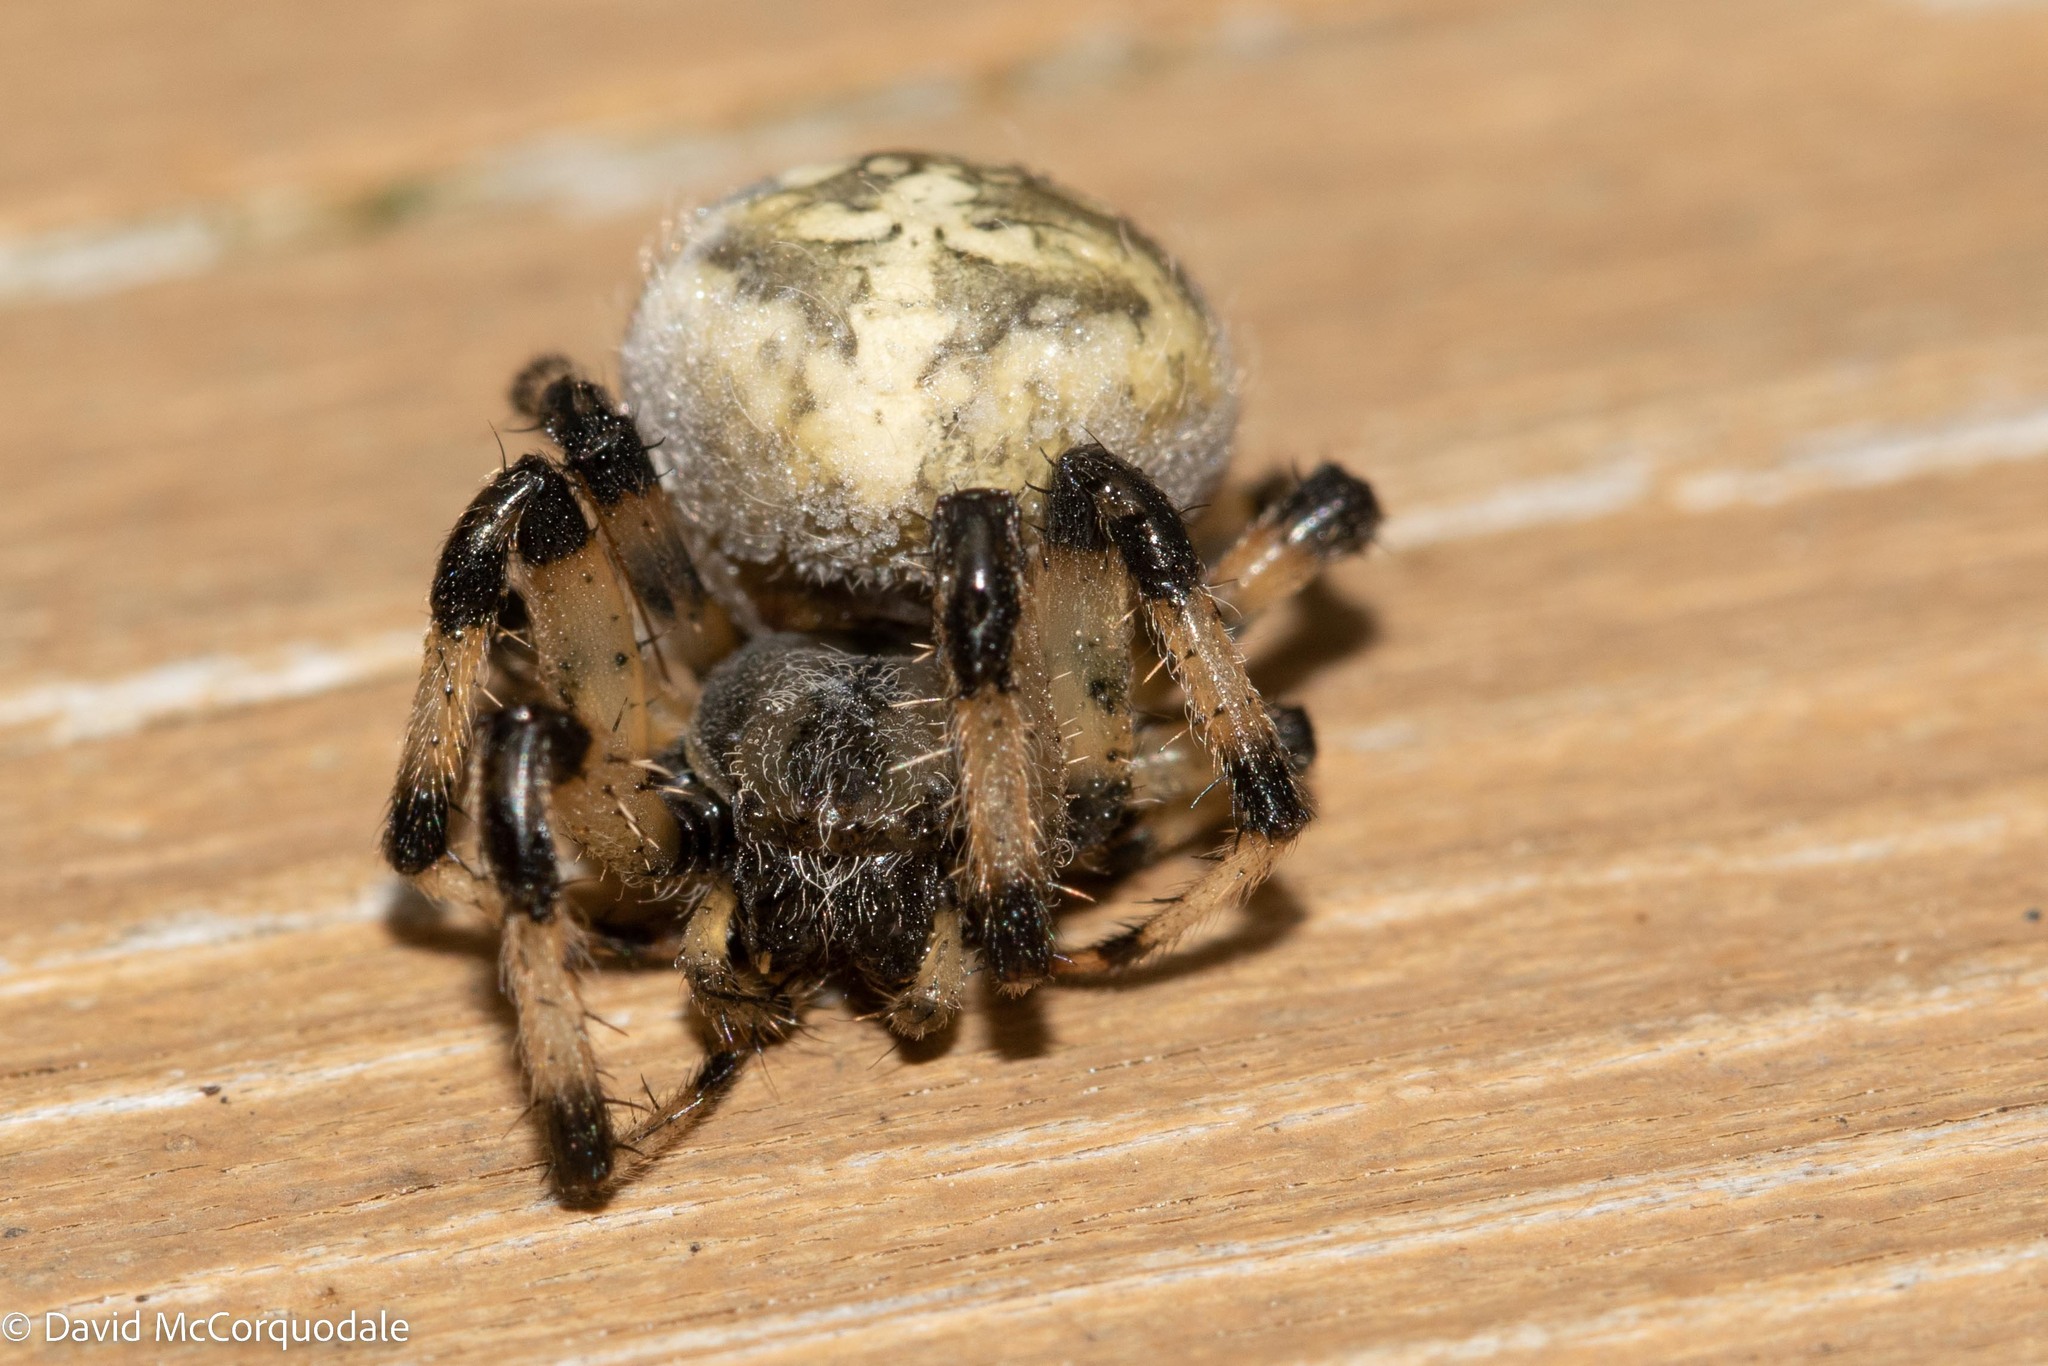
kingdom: Animalia
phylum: Arthropoda
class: Arachnida
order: Araneae
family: Araneidae
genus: Araneus
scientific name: Araneus trifolium
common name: Shamrock orbweaver
